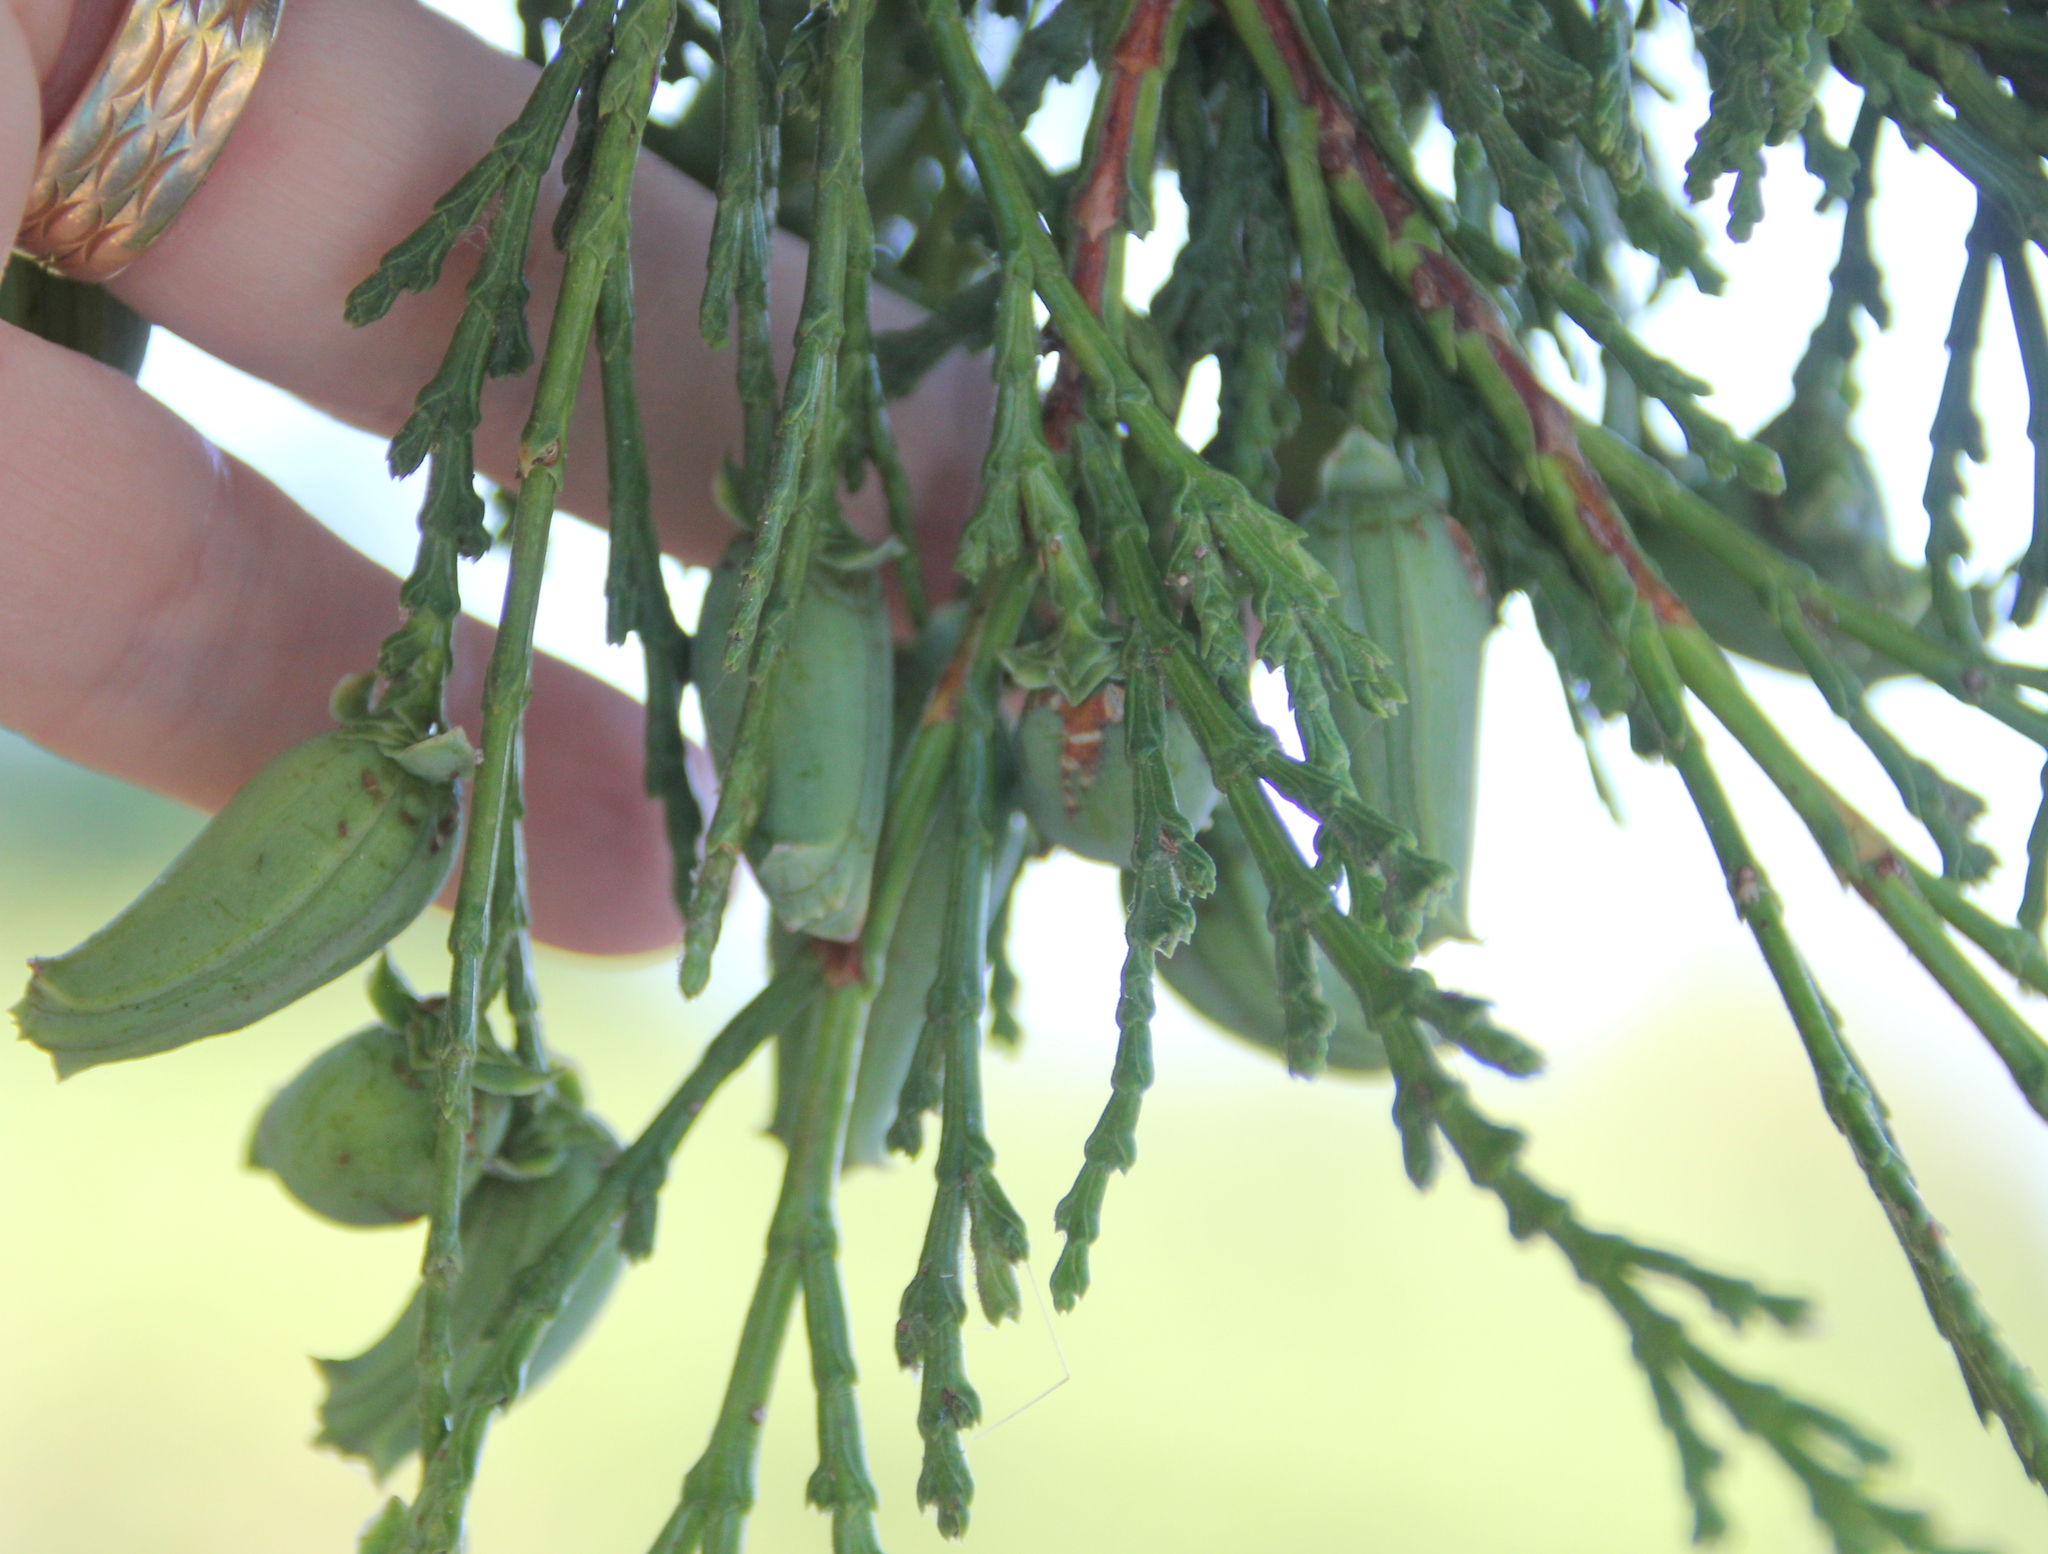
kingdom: Plantae
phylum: Tracheophyta
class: Pinopsida
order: Pinales
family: Cupressaceae
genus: Calocedrus
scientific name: Calocedrus decurrens
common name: Californian incense-cedar
